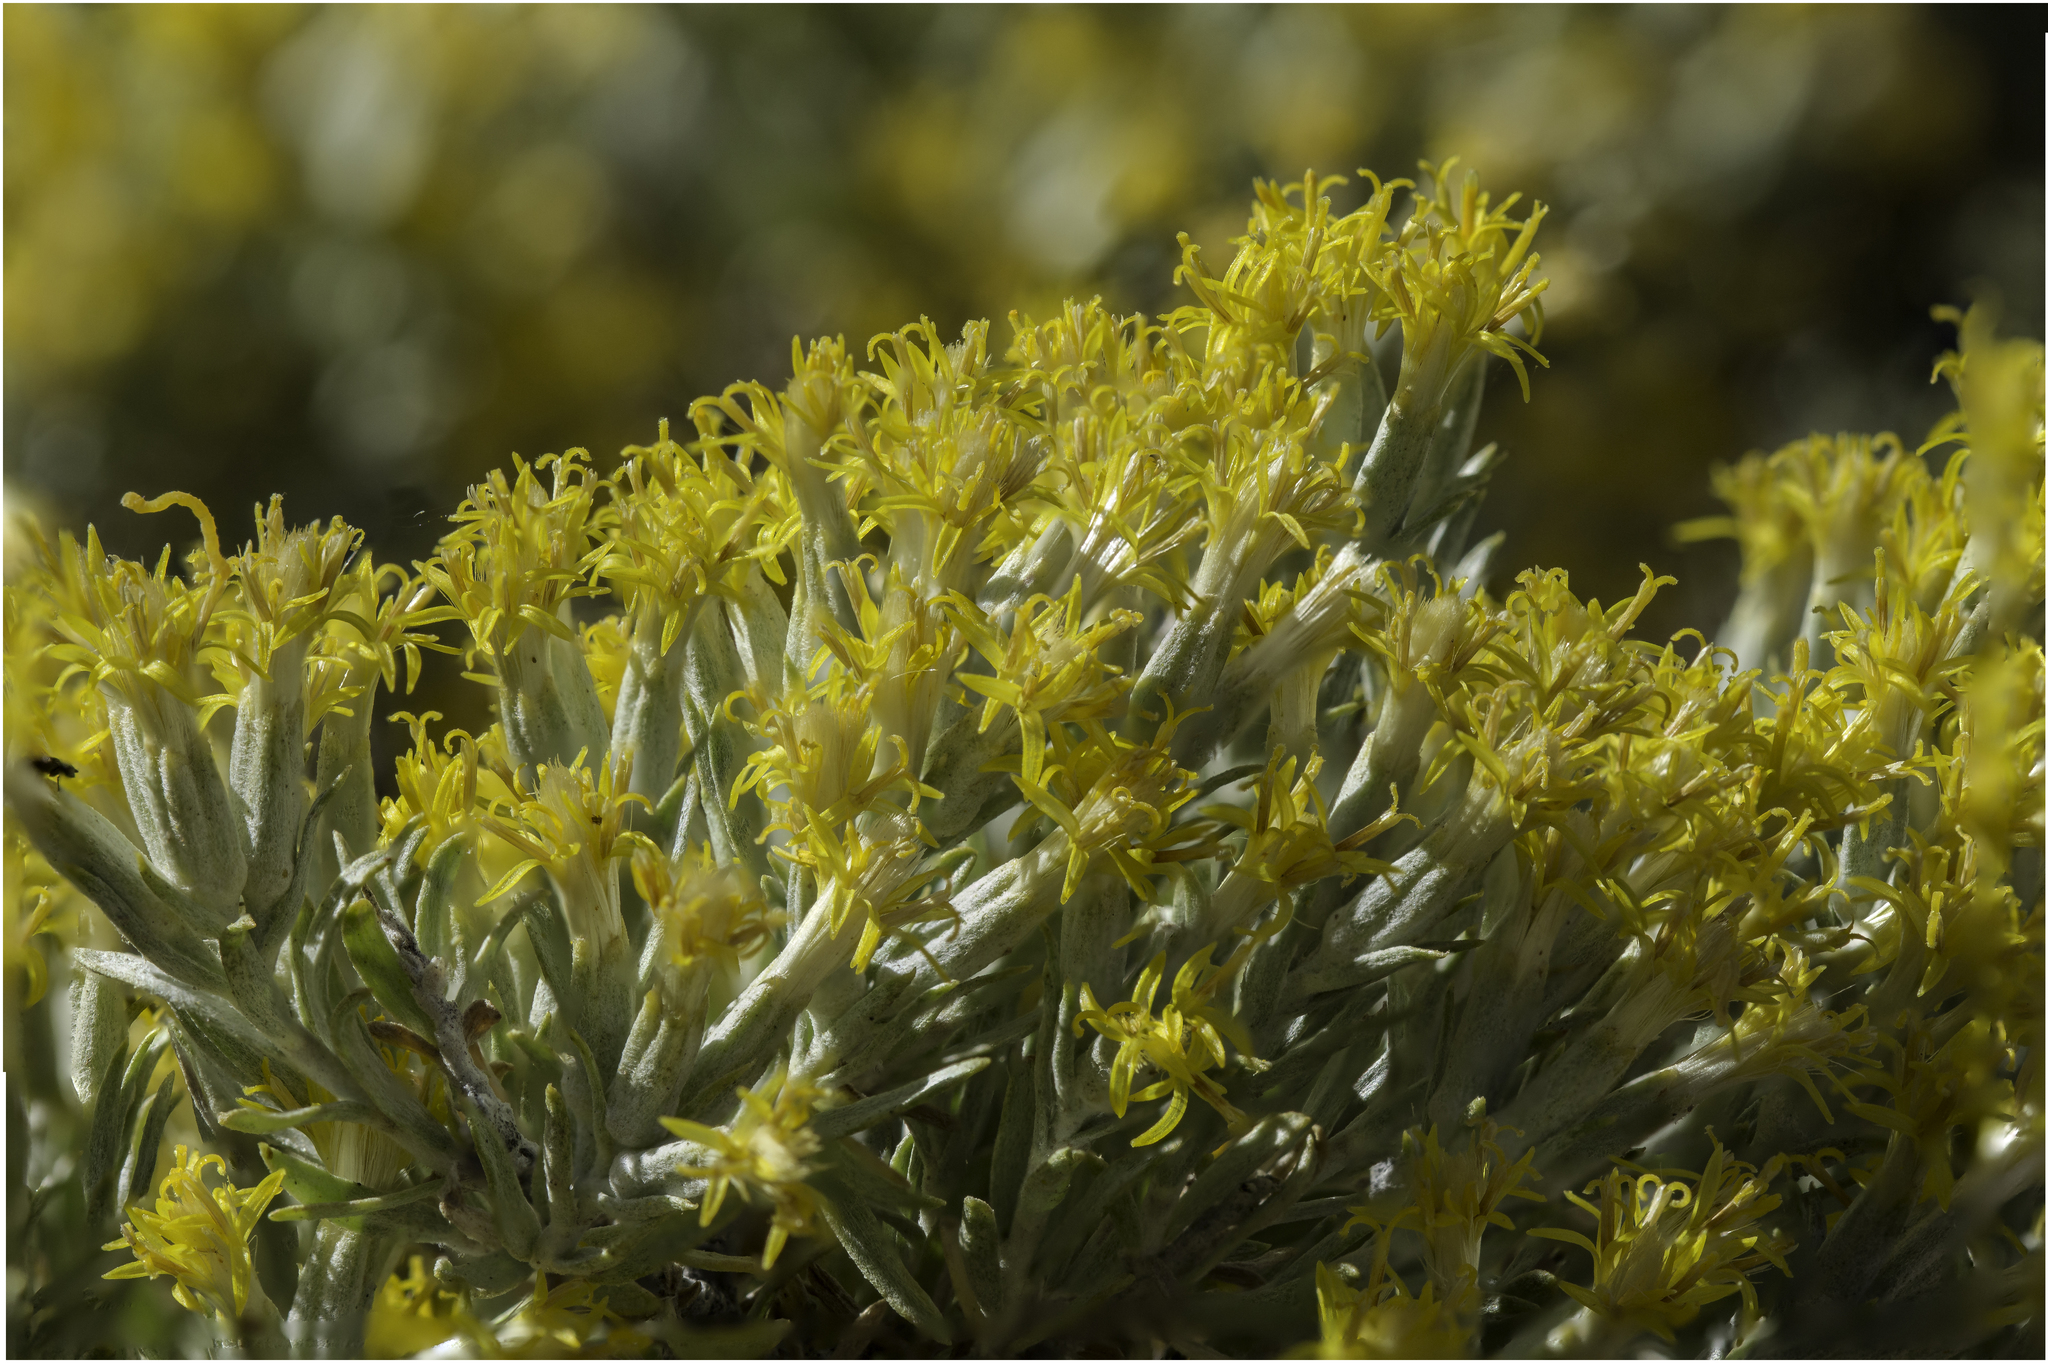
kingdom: Plantae
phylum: Tracheophyta
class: Magnoliopsida
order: Asterales
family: Asteraceae
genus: Tetradymia
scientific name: Tetradymia canescens
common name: Spineless horsebrush
